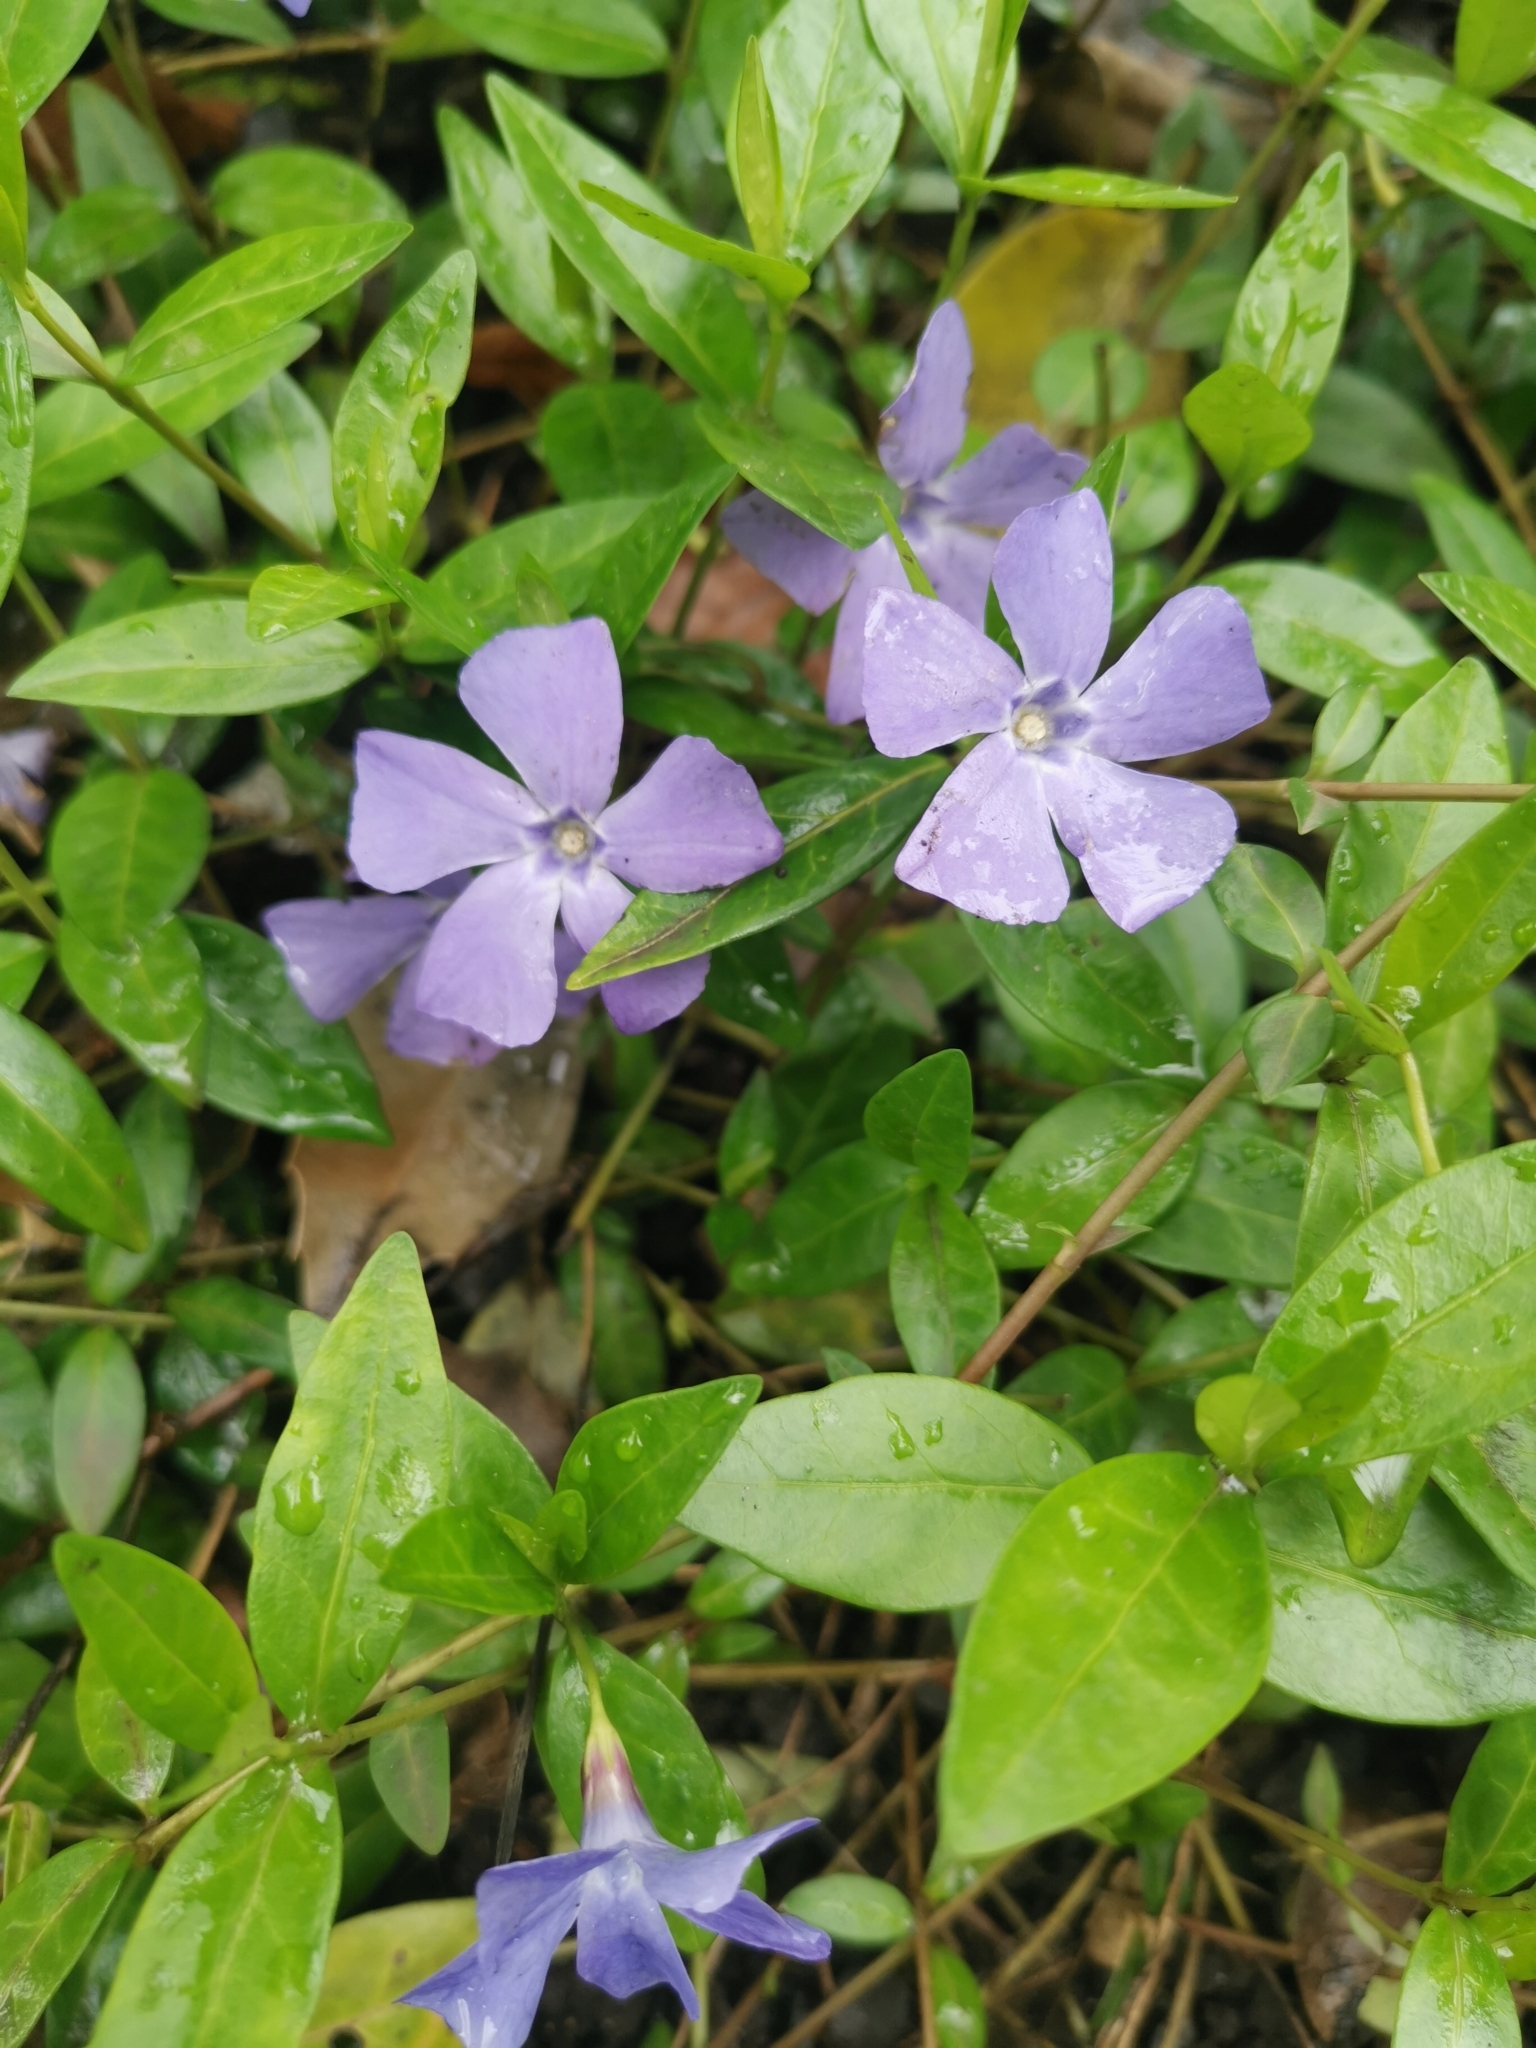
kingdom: Plantae
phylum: Tracheophyta
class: Magnoliopsida
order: Gentianales
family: Apocynaceae
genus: Vinca
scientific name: Vinca minor
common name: Lesser periwinkle
